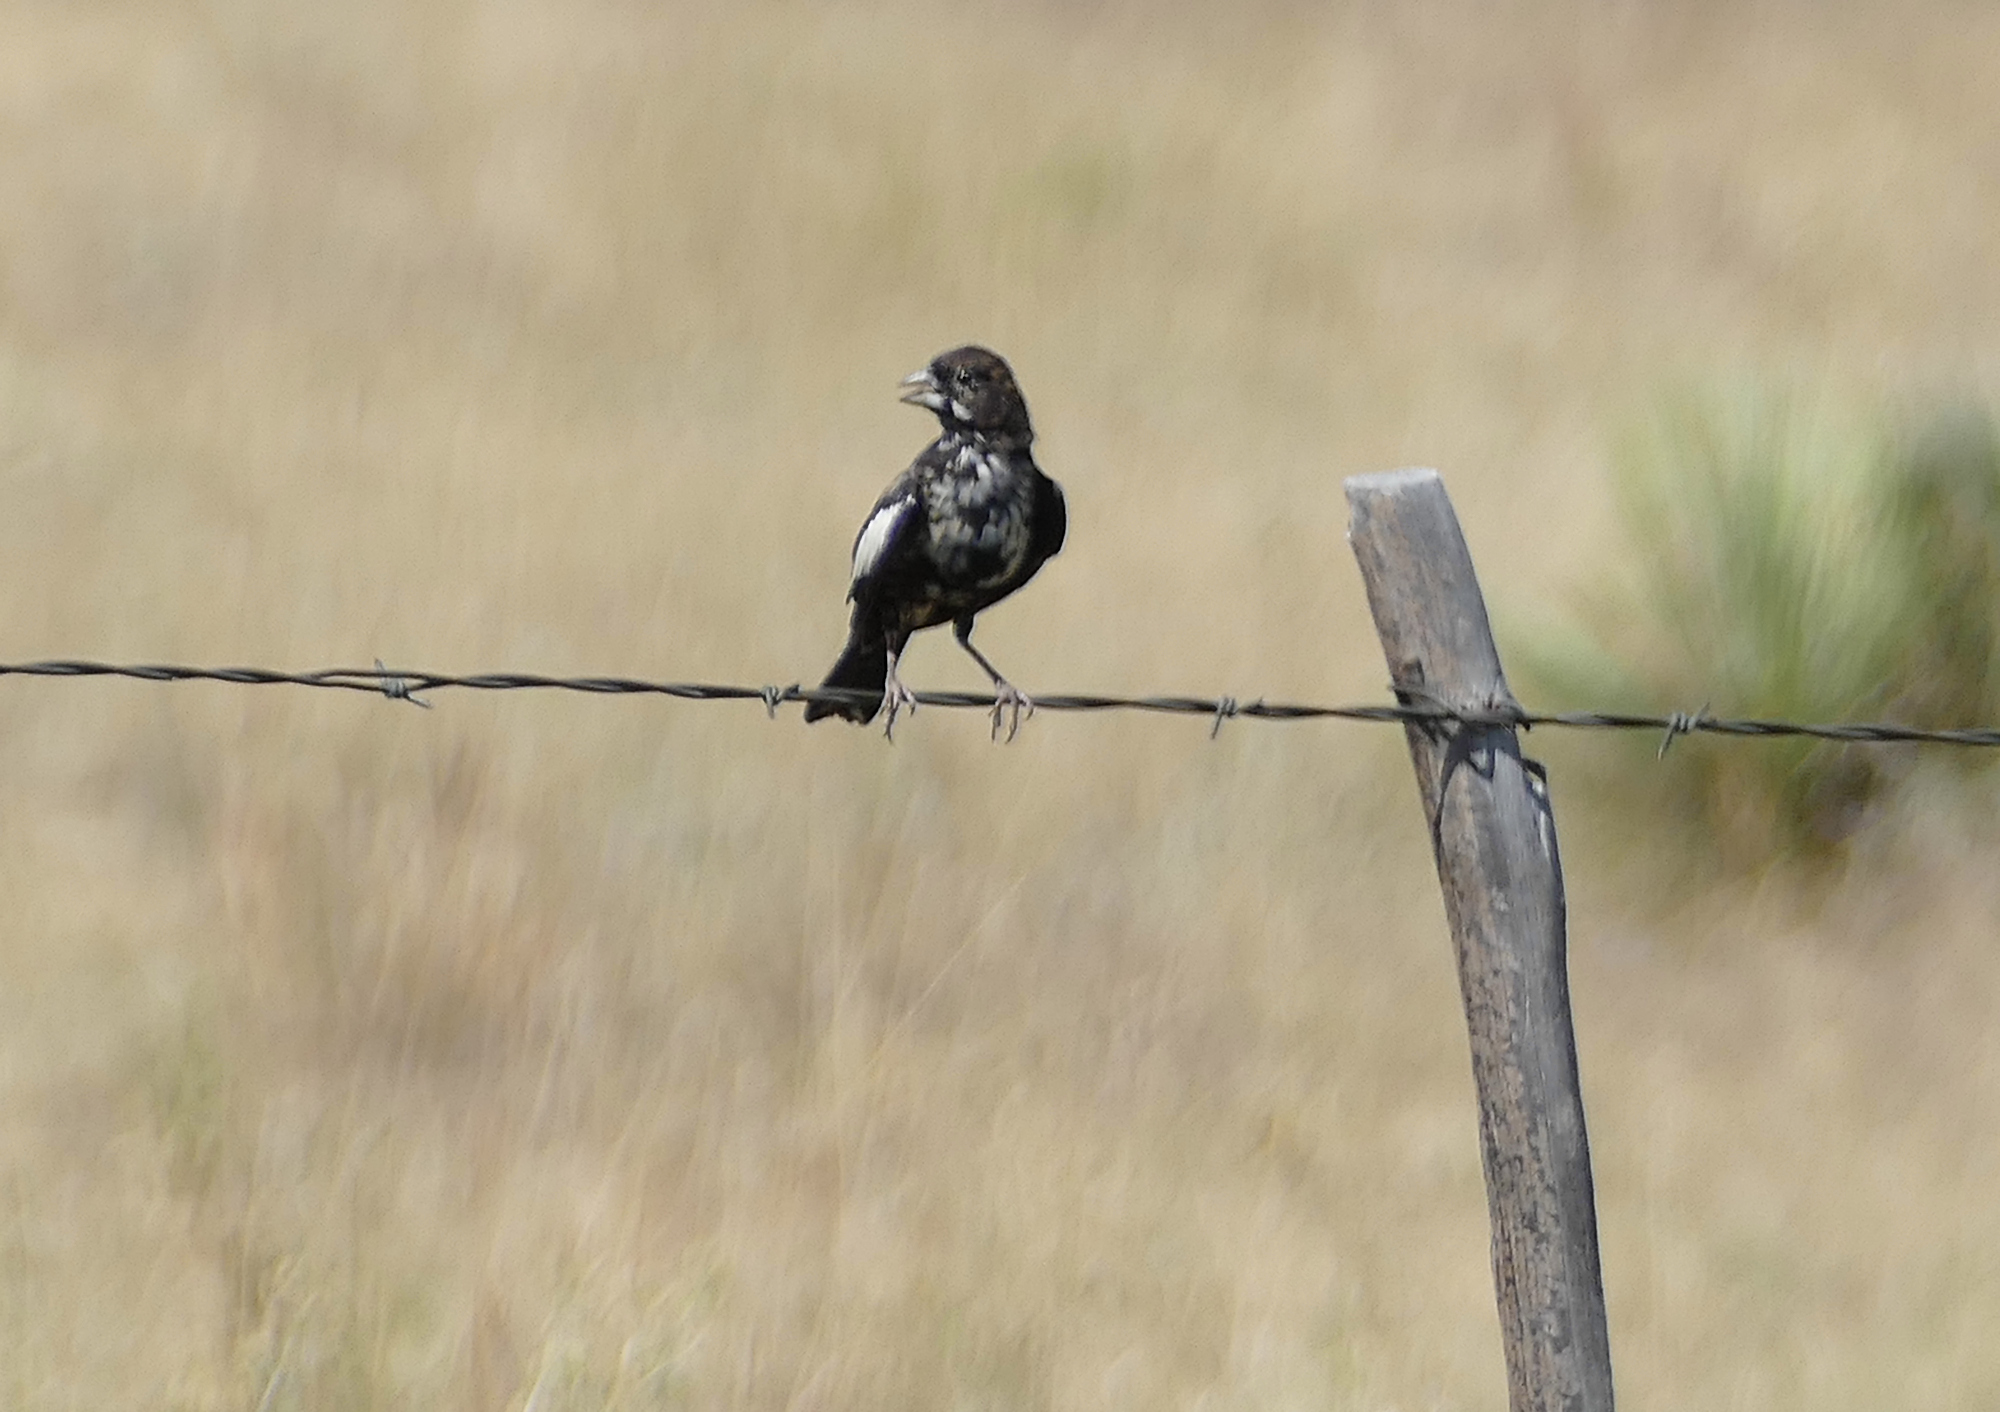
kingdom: Animalia
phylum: Chordata
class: Aves
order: Passeriformes
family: Passerellidae
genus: Calamospiza
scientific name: Calamospiza melanocorys
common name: Lark bunting
